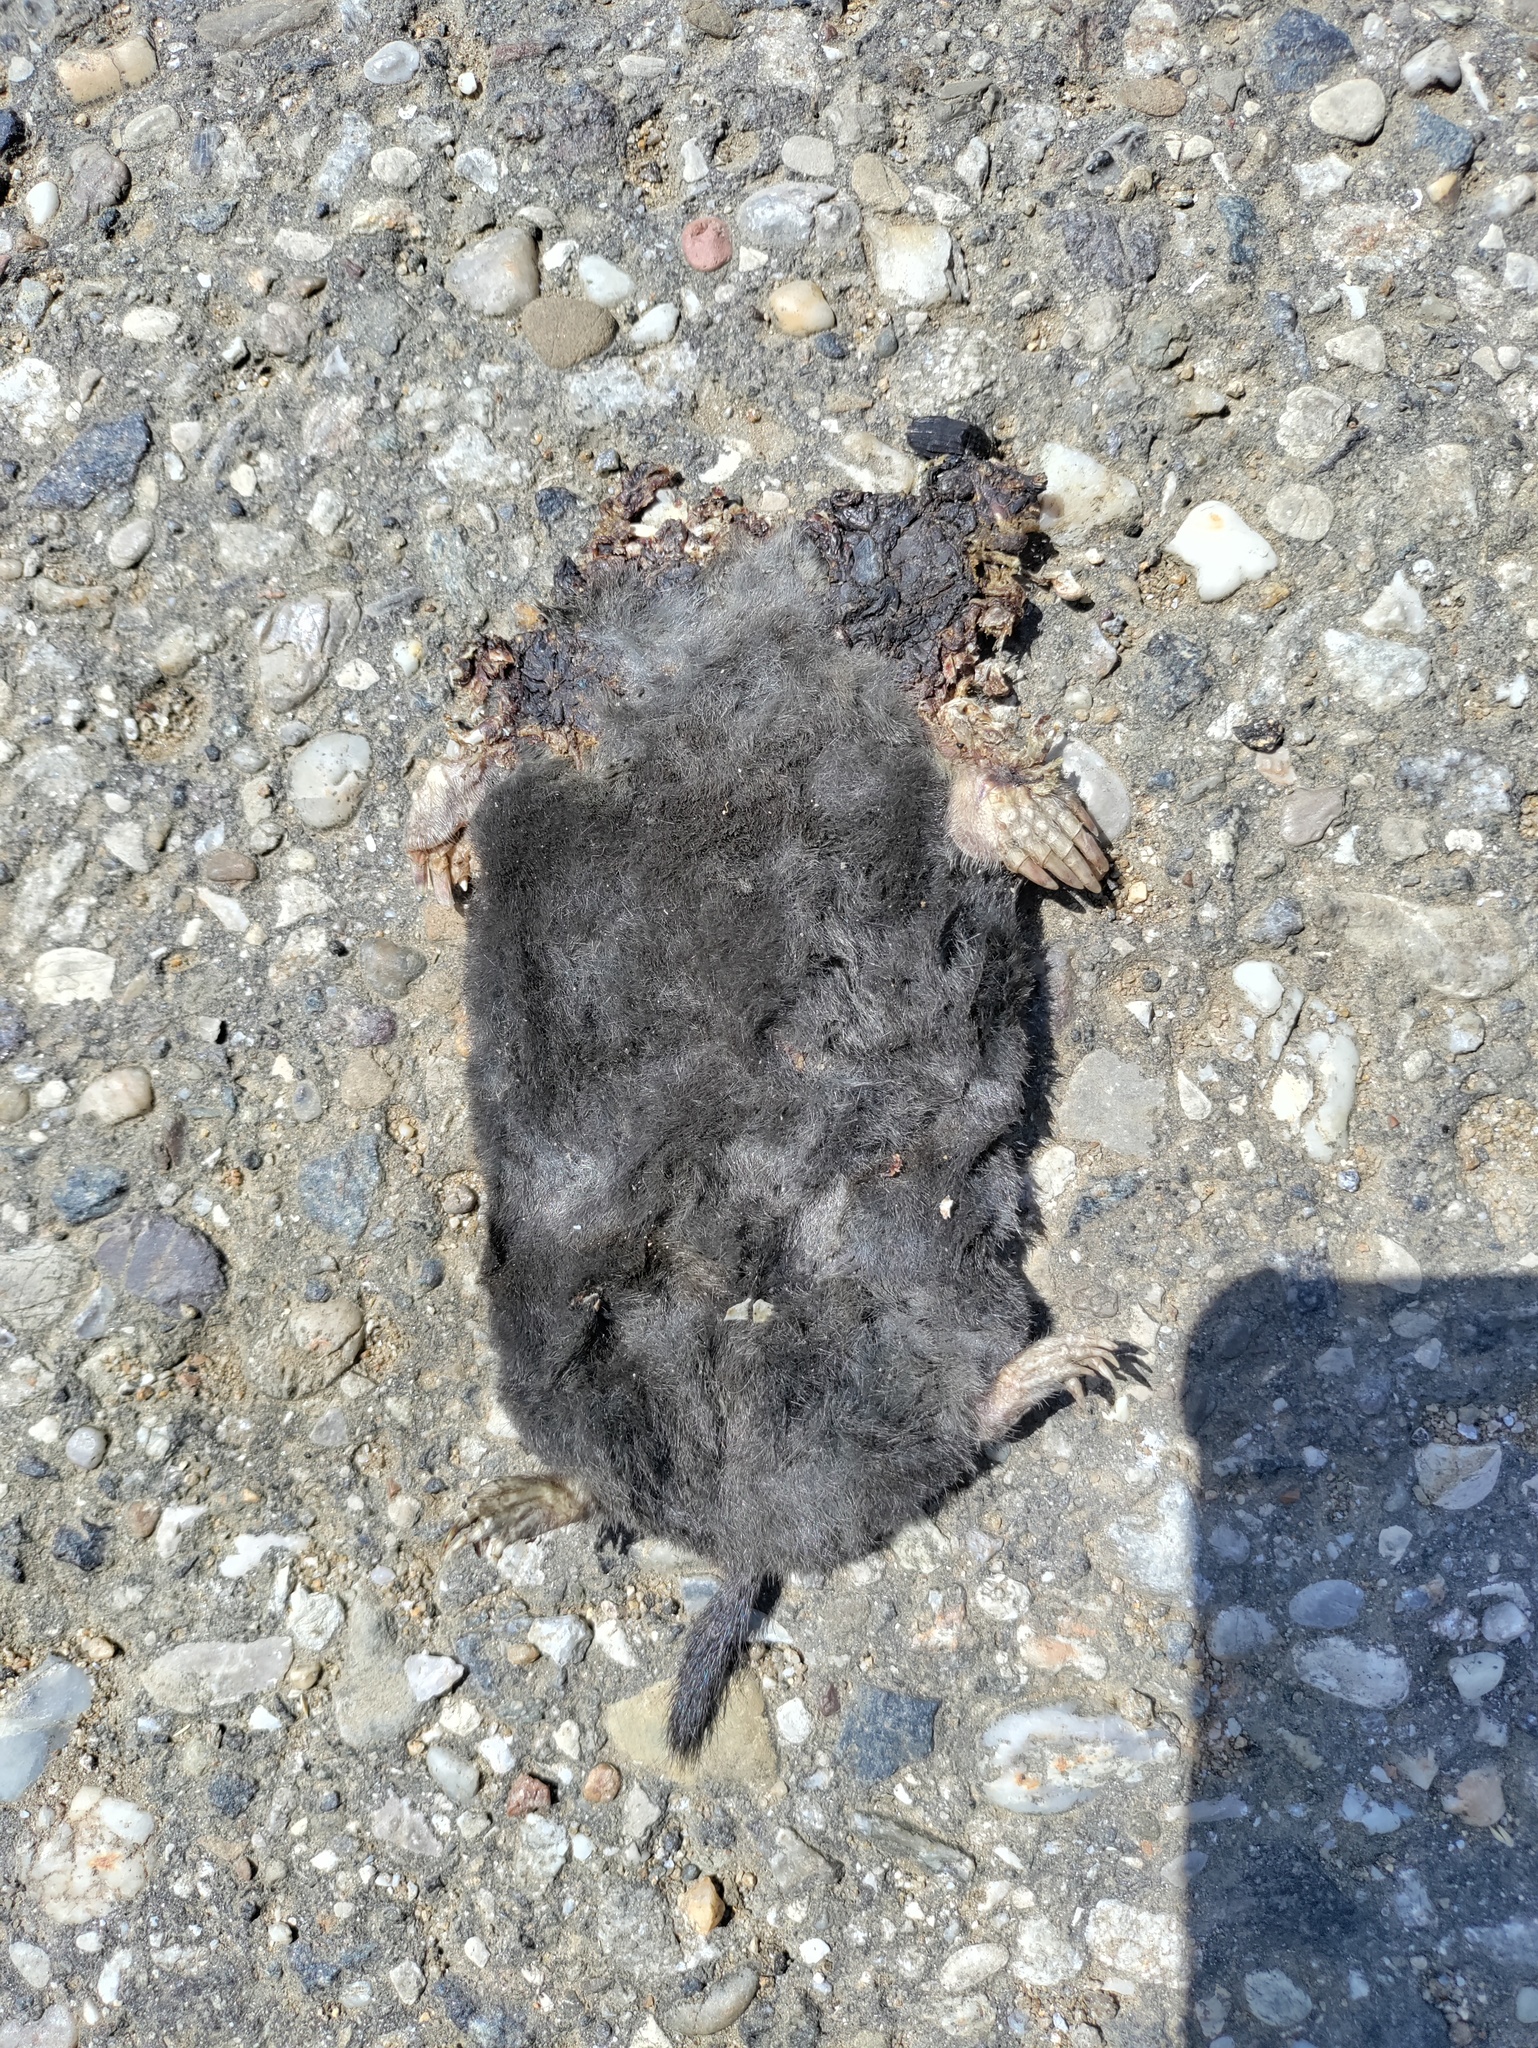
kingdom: Animalia
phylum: Chordata
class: Mammalia
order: Soricomorpha
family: Talpidae
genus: Talpa
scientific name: Talpa europaea
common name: European mole
